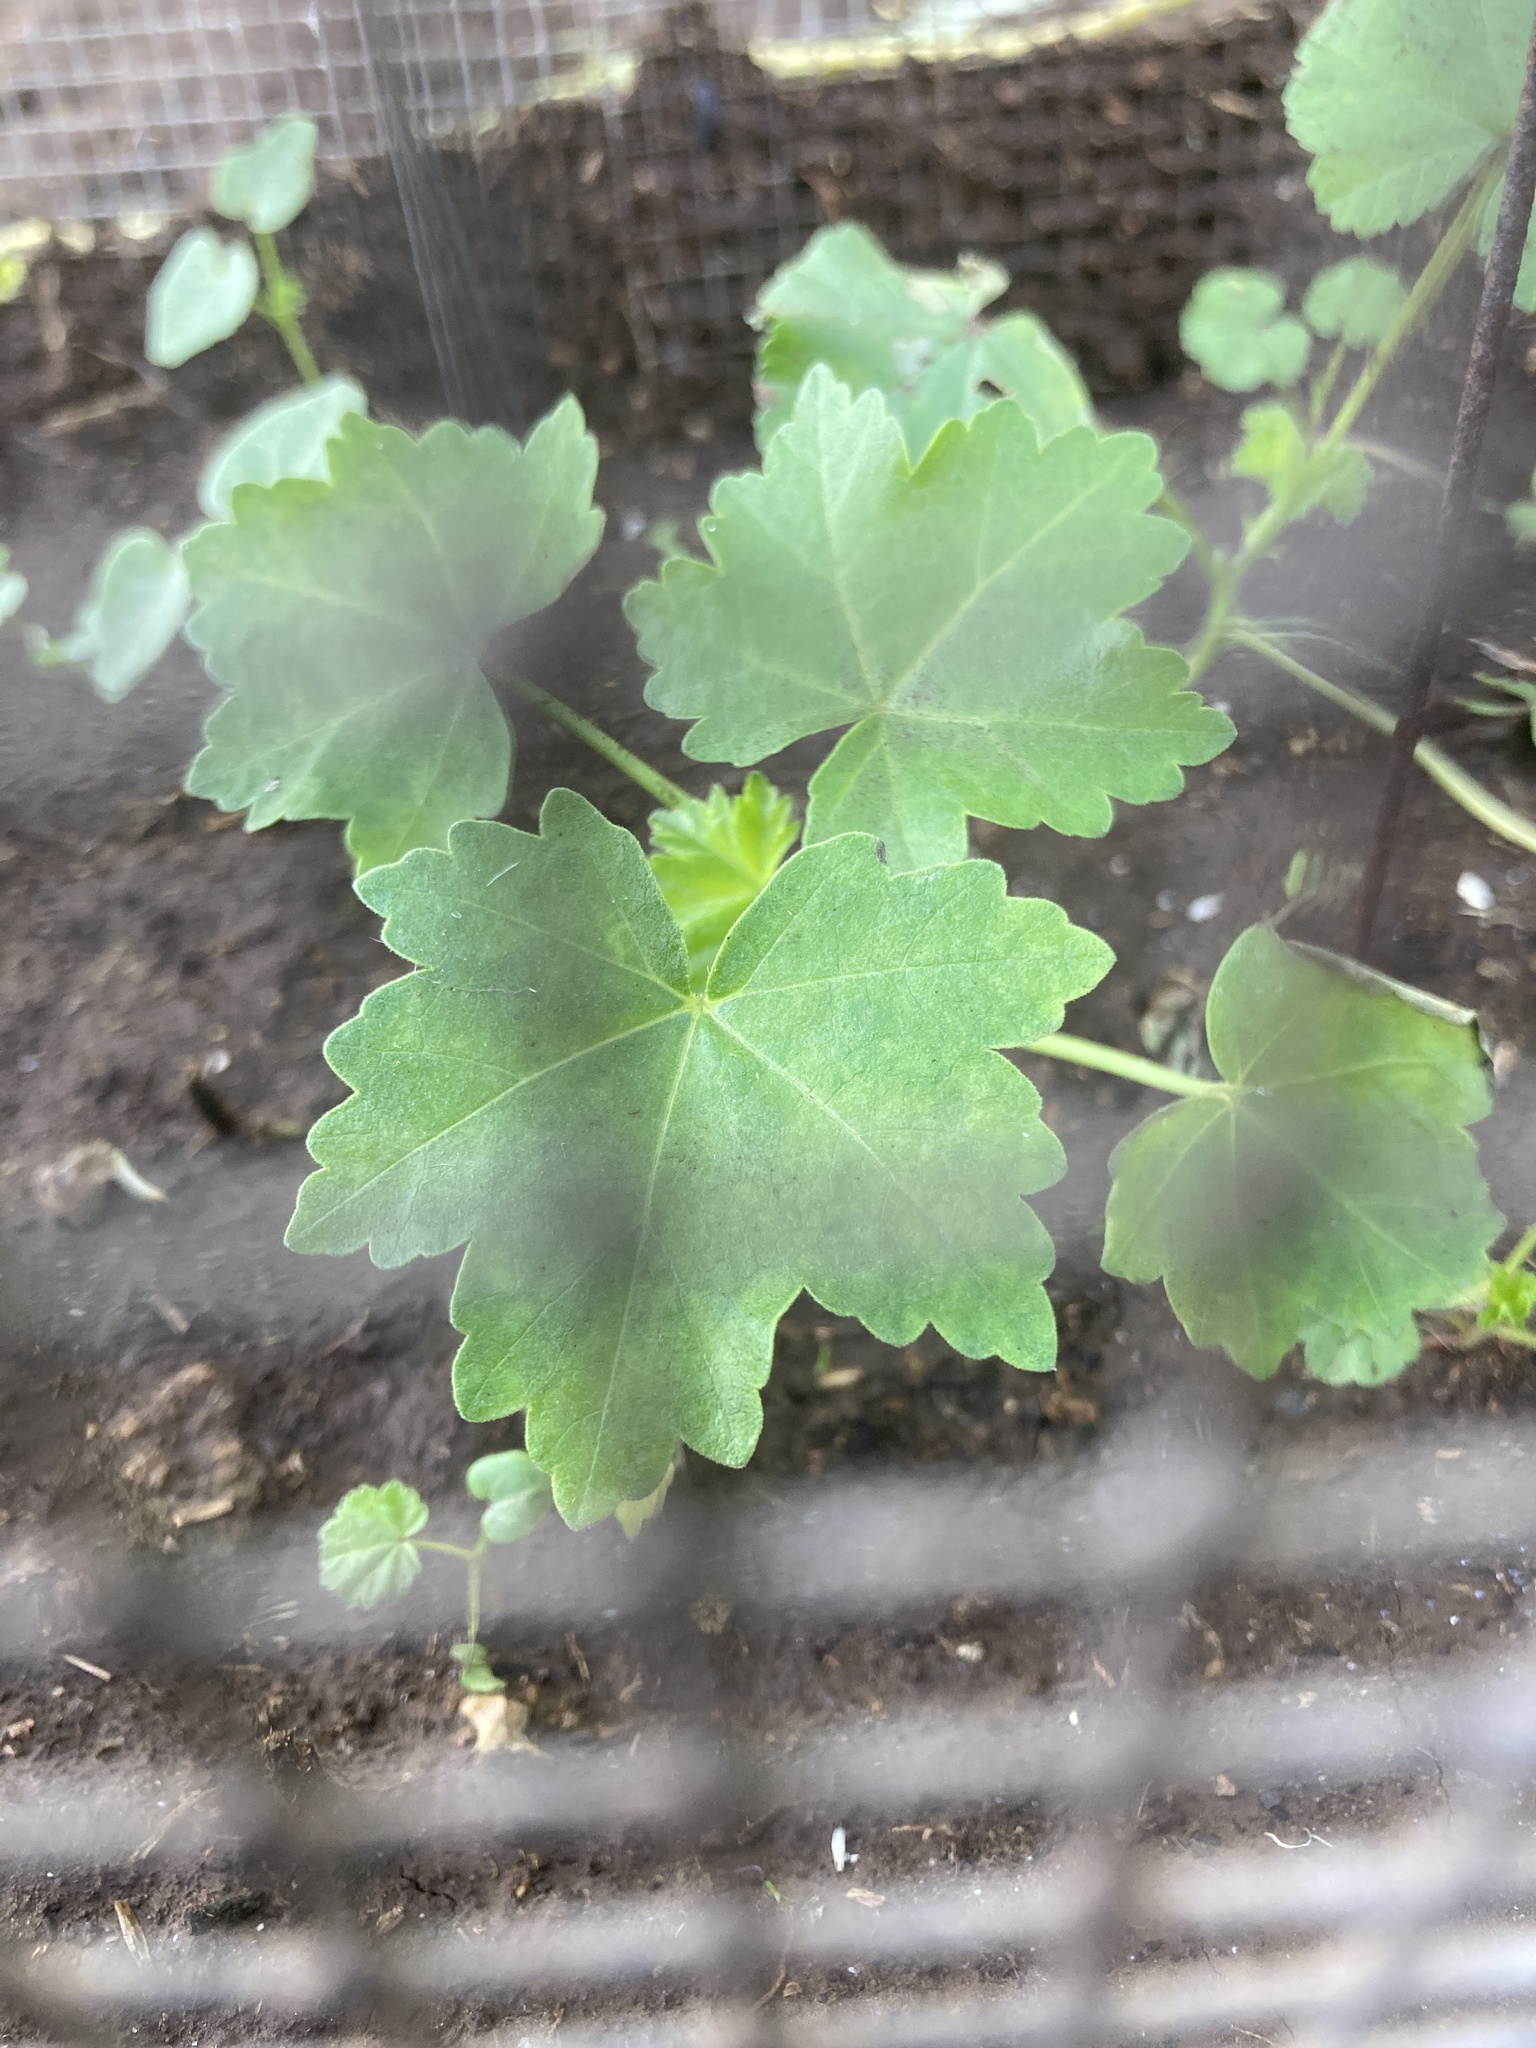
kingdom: Plantae
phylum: Tracheophyta
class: Magnoliopsida
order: Malvales
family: Malvaceae
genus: Malva
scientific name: Malva assurgentiflora
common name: Island mallow
